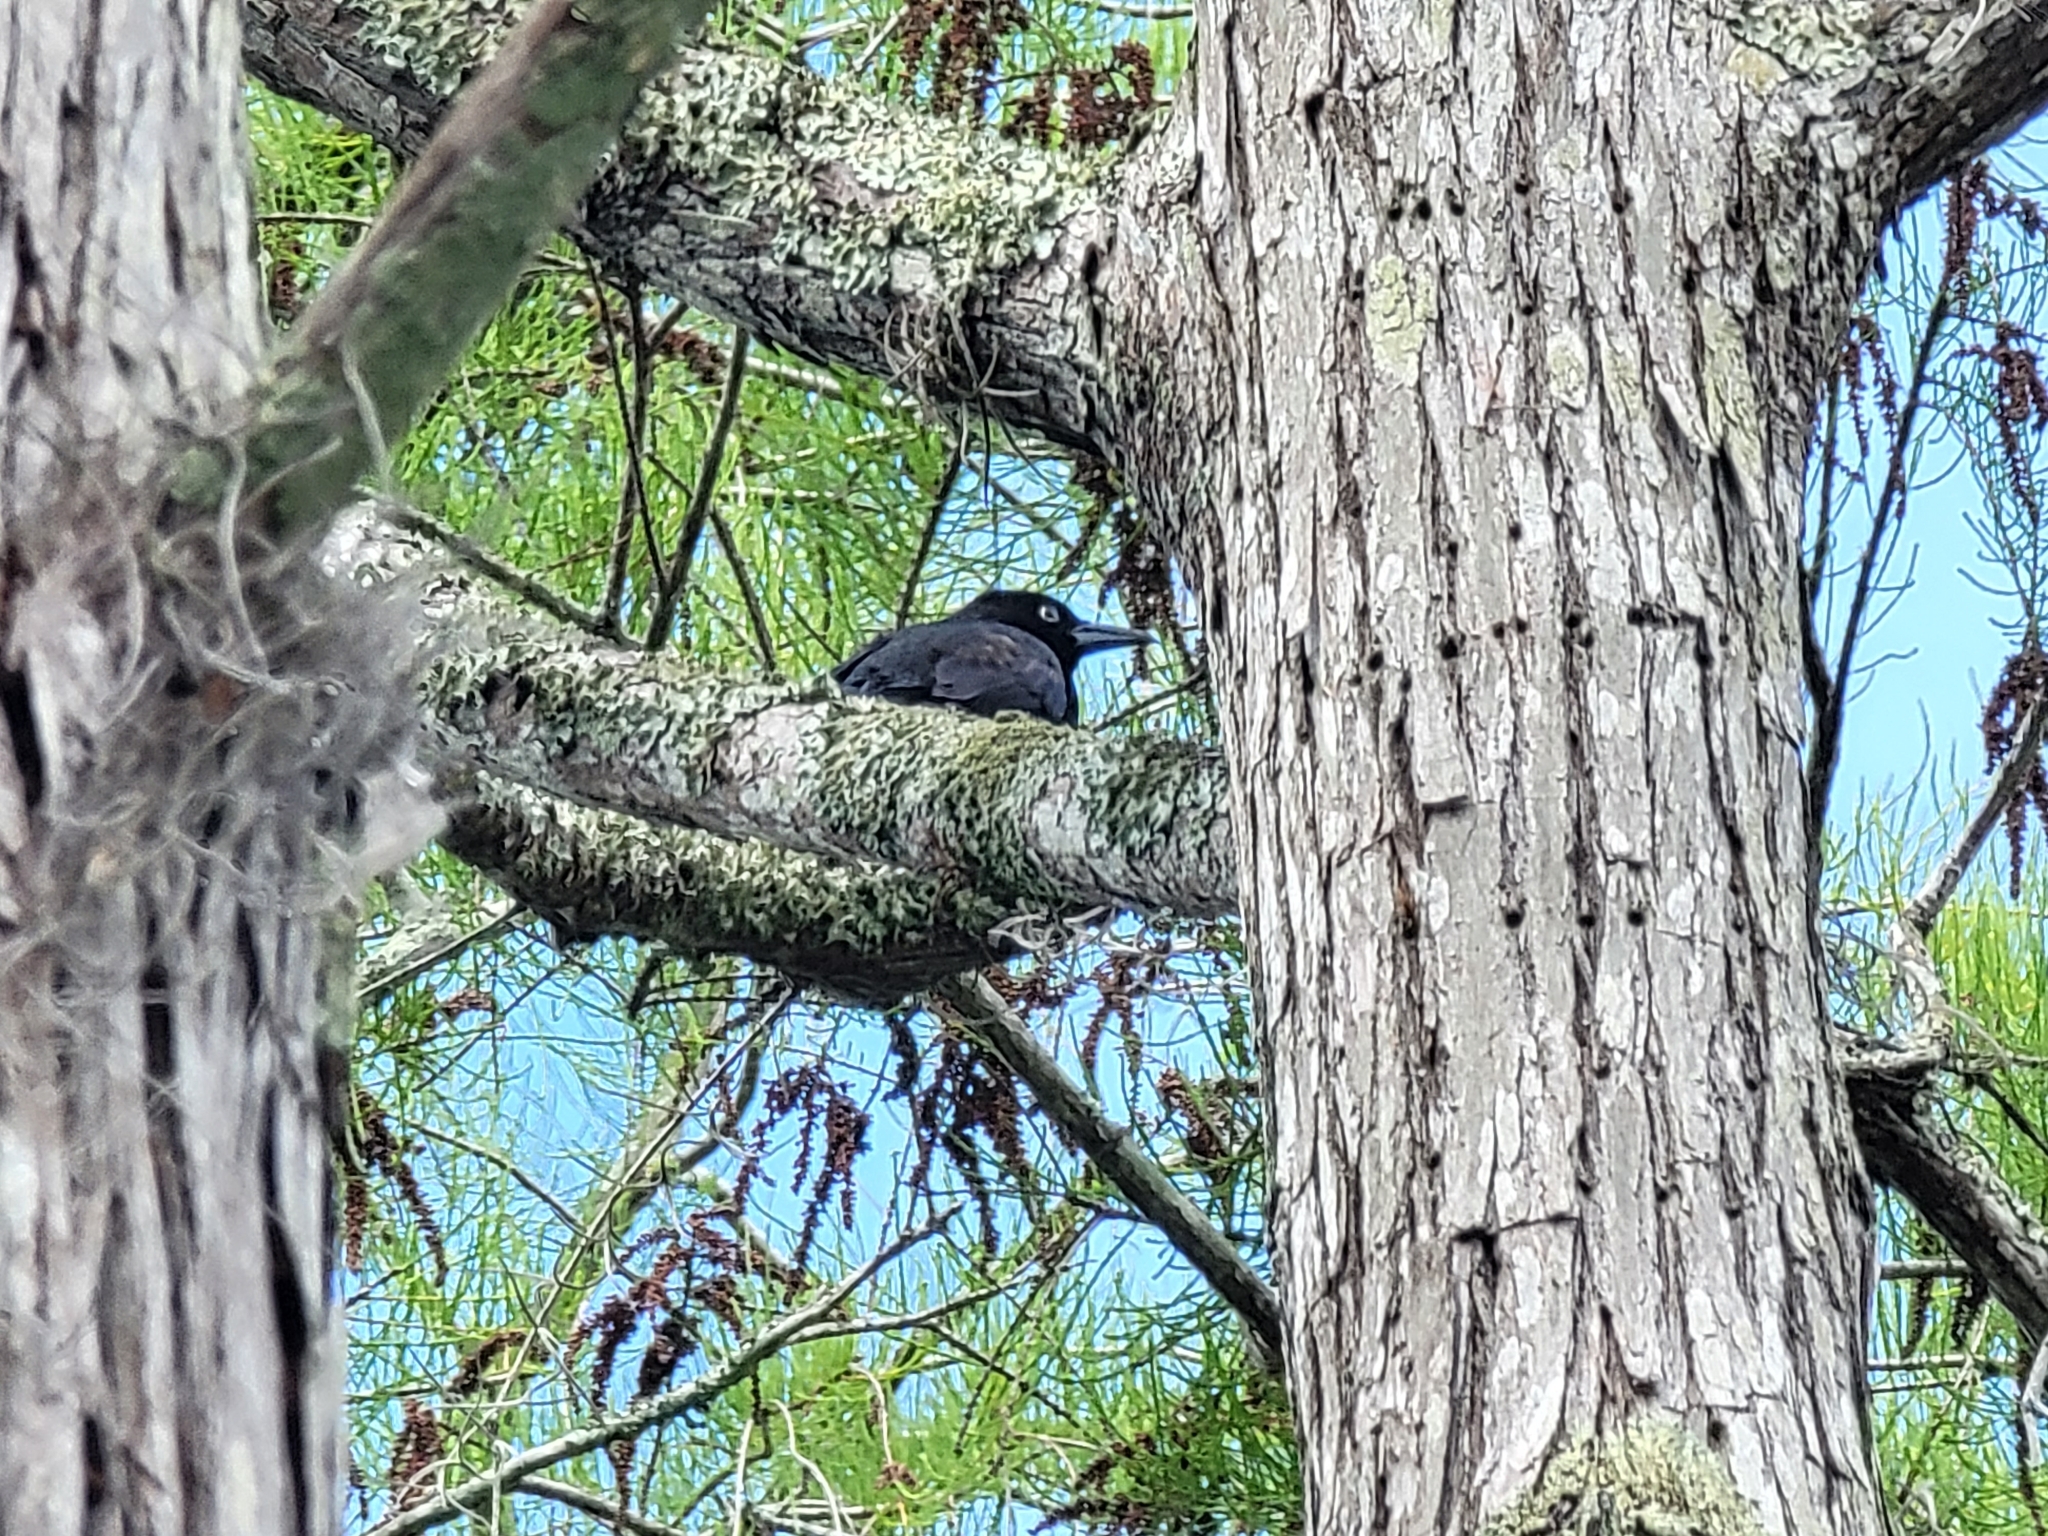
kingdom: Animalia
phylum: Chordata
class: Aves
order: Passeriformes
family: Icteridae
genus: Quiscalus
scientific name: Quiscalus quiscula
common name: Common grackle
